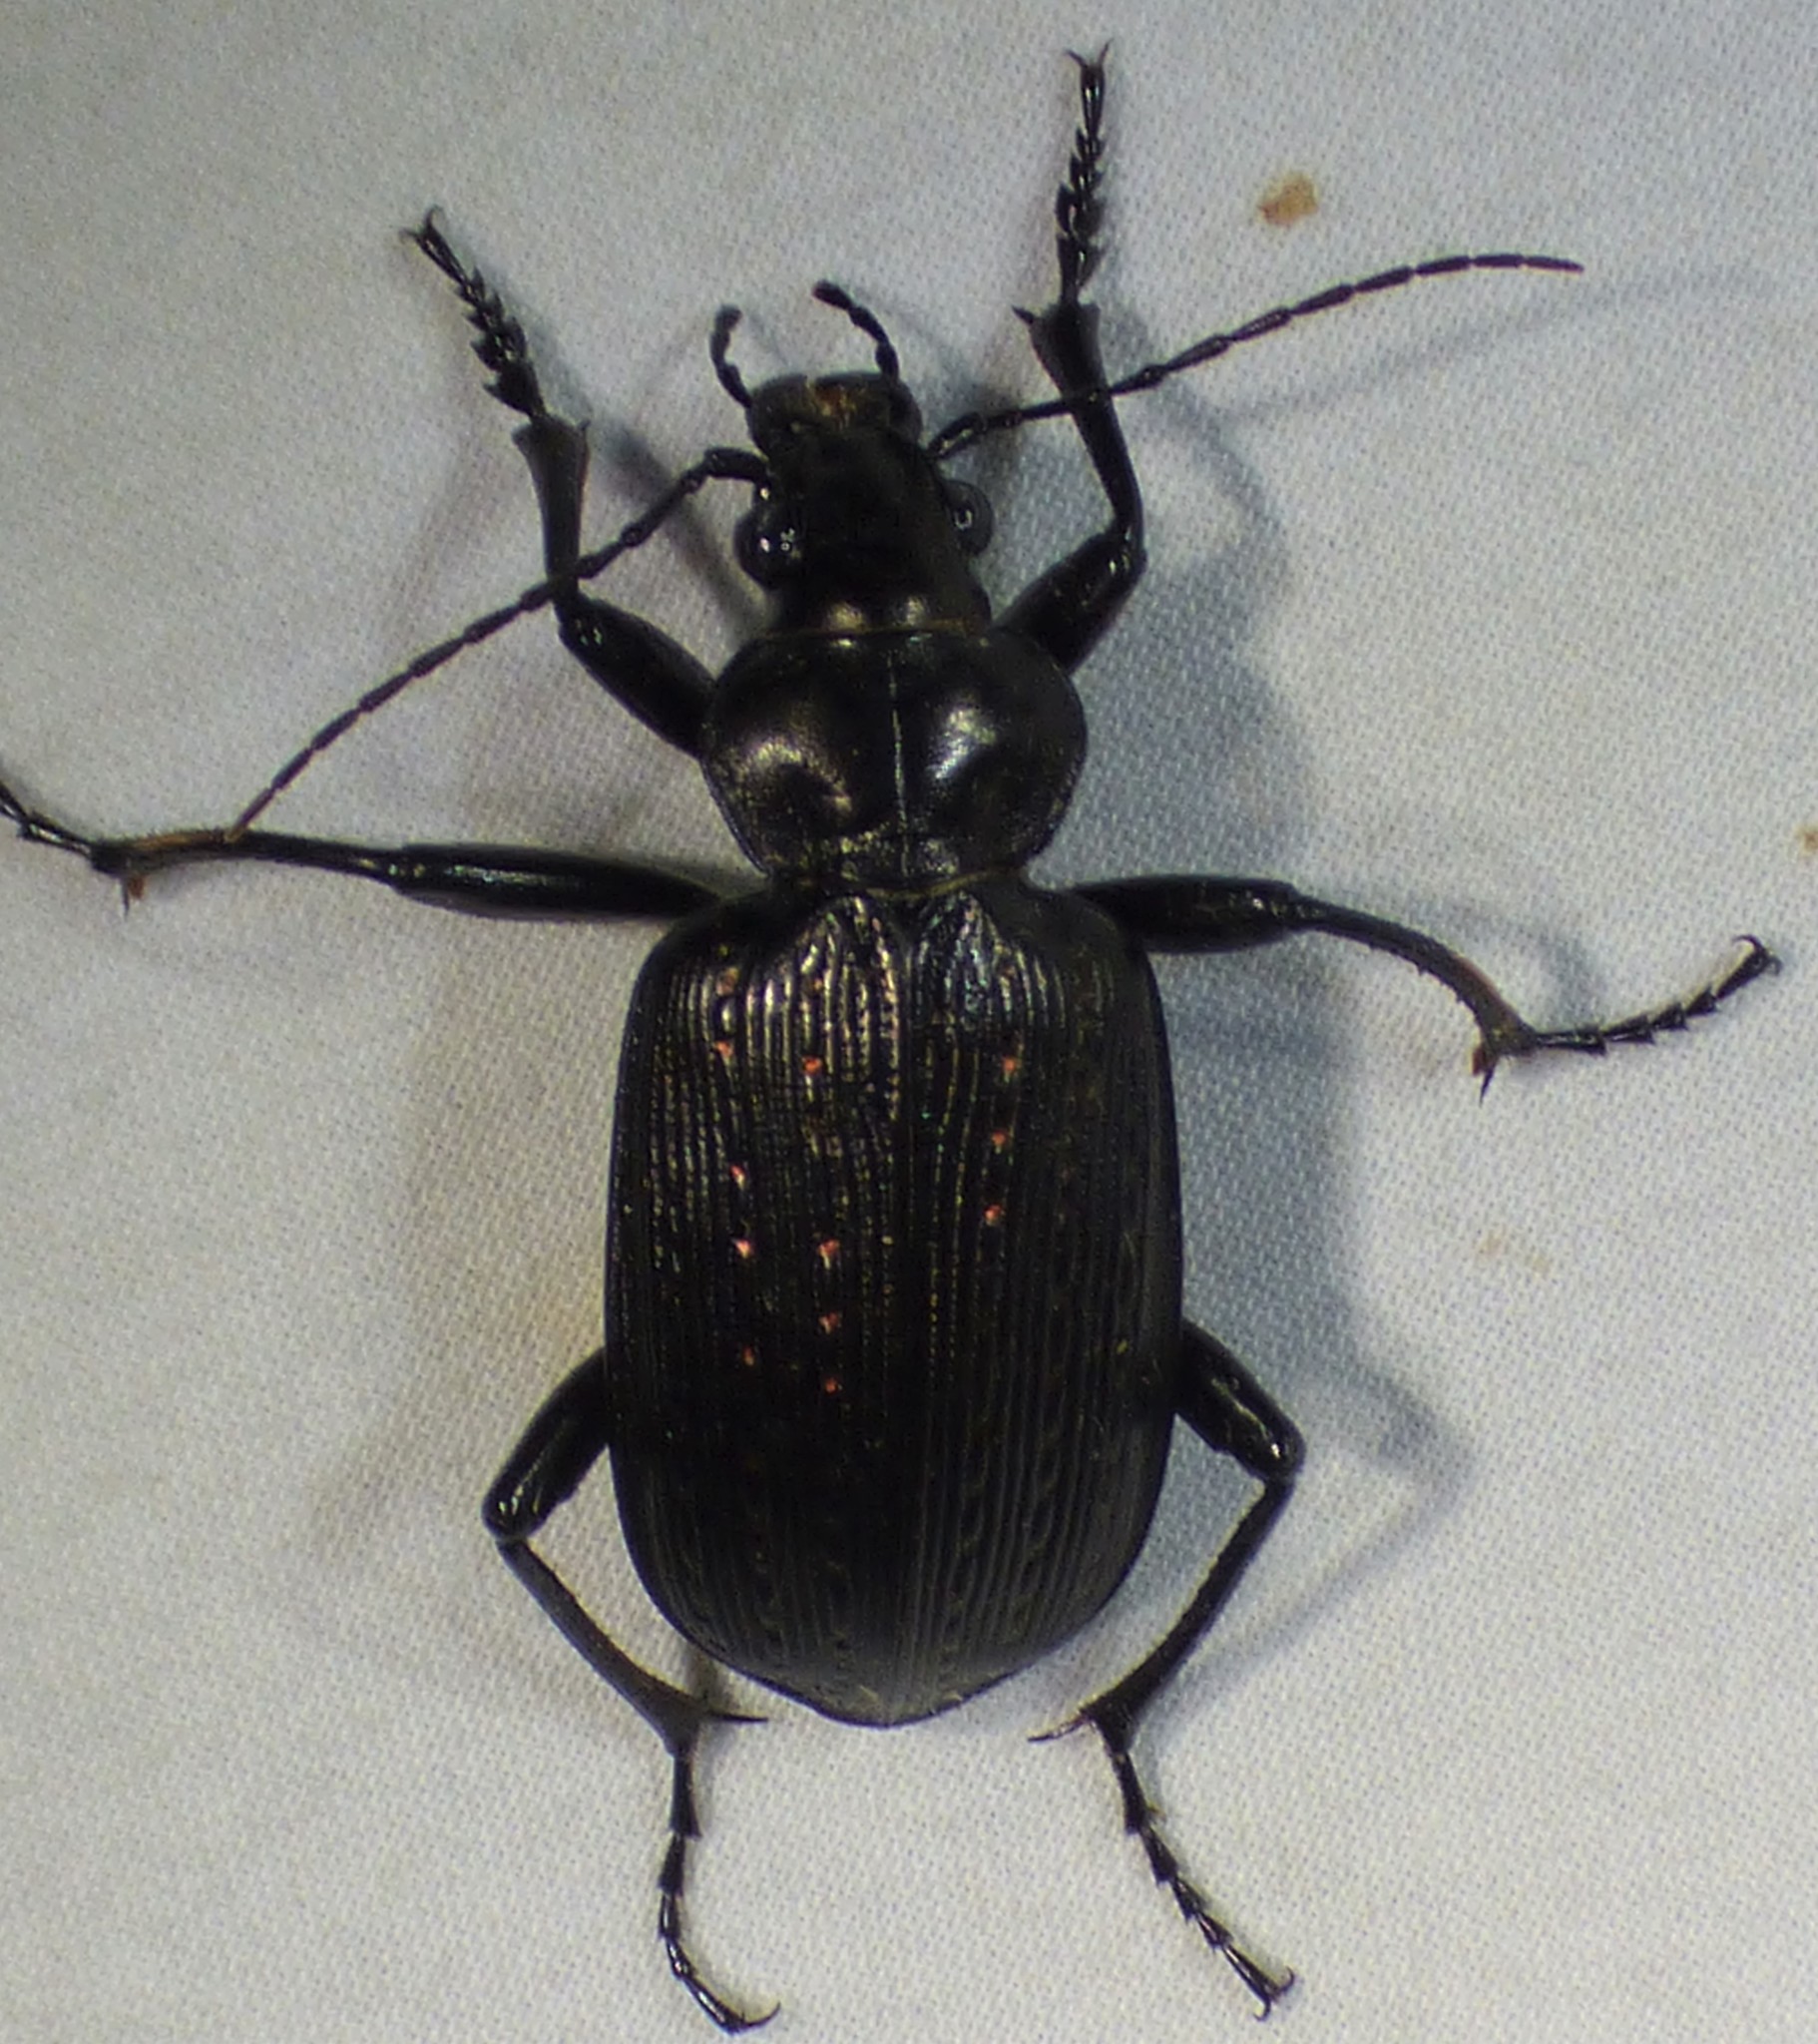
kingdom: Animalia
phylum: Arthropoda
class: Insecta
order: Coleoptera
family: Carabidae
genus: Calosoma
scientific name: Calosoma sayi
